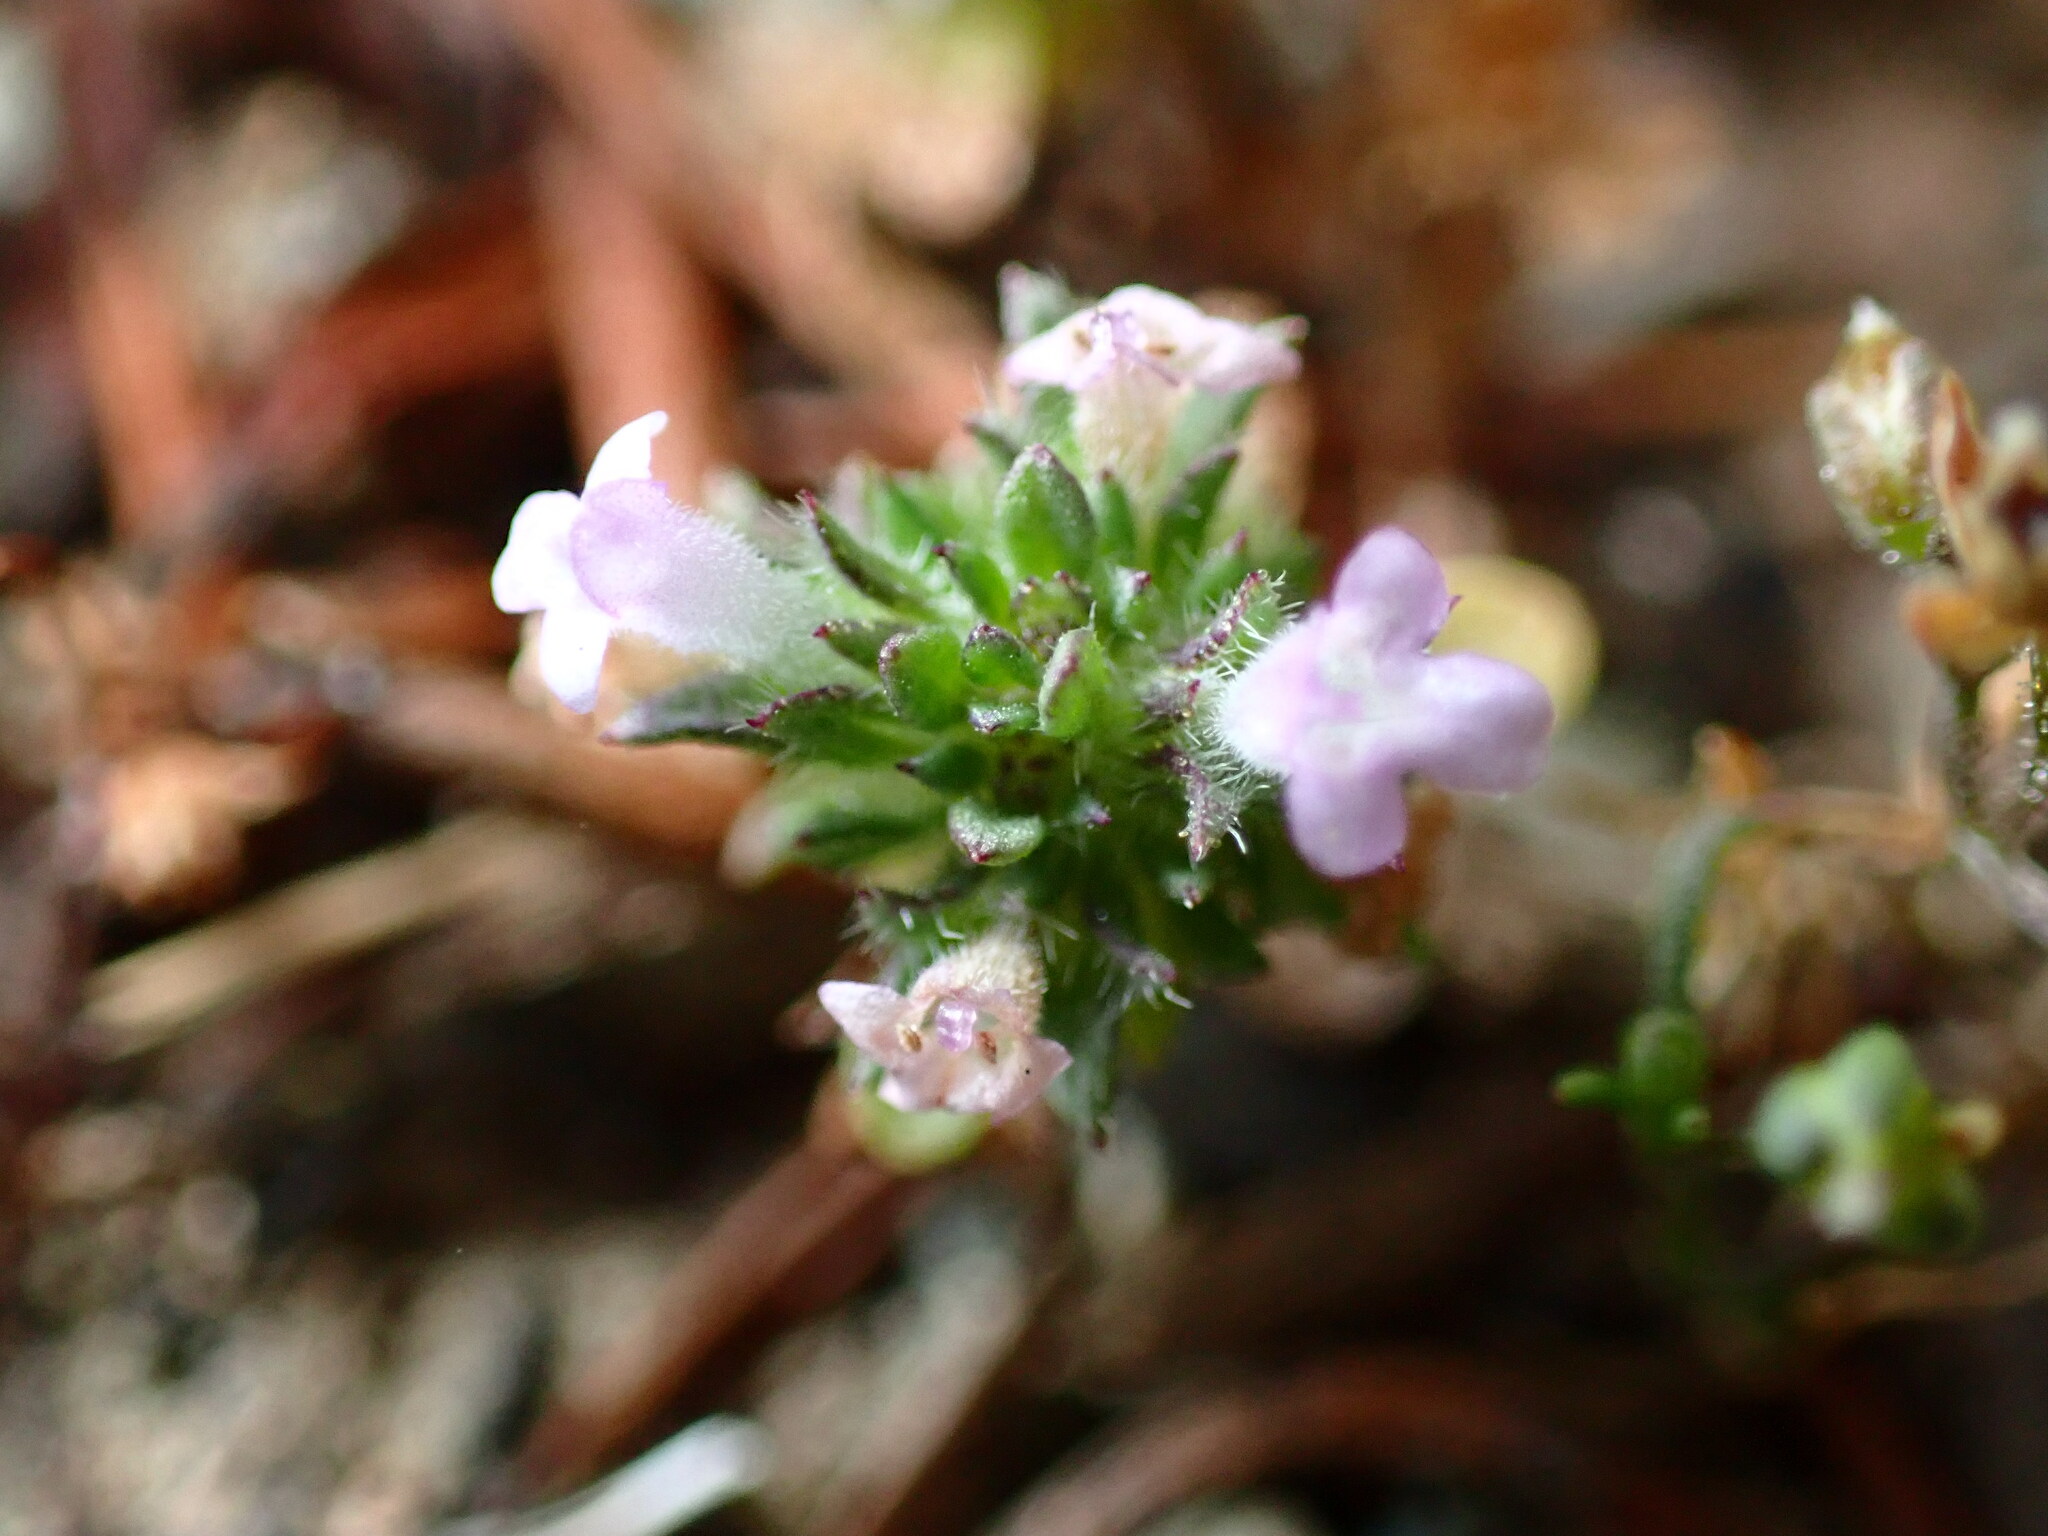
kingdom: Plantae
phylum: Tracheophyta
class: Magnoliopsida
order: Lamiales
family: Lamiaceae
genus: Pogogyne
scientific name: Pogogyne serpylloides
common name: Thymeleaf mesamint
